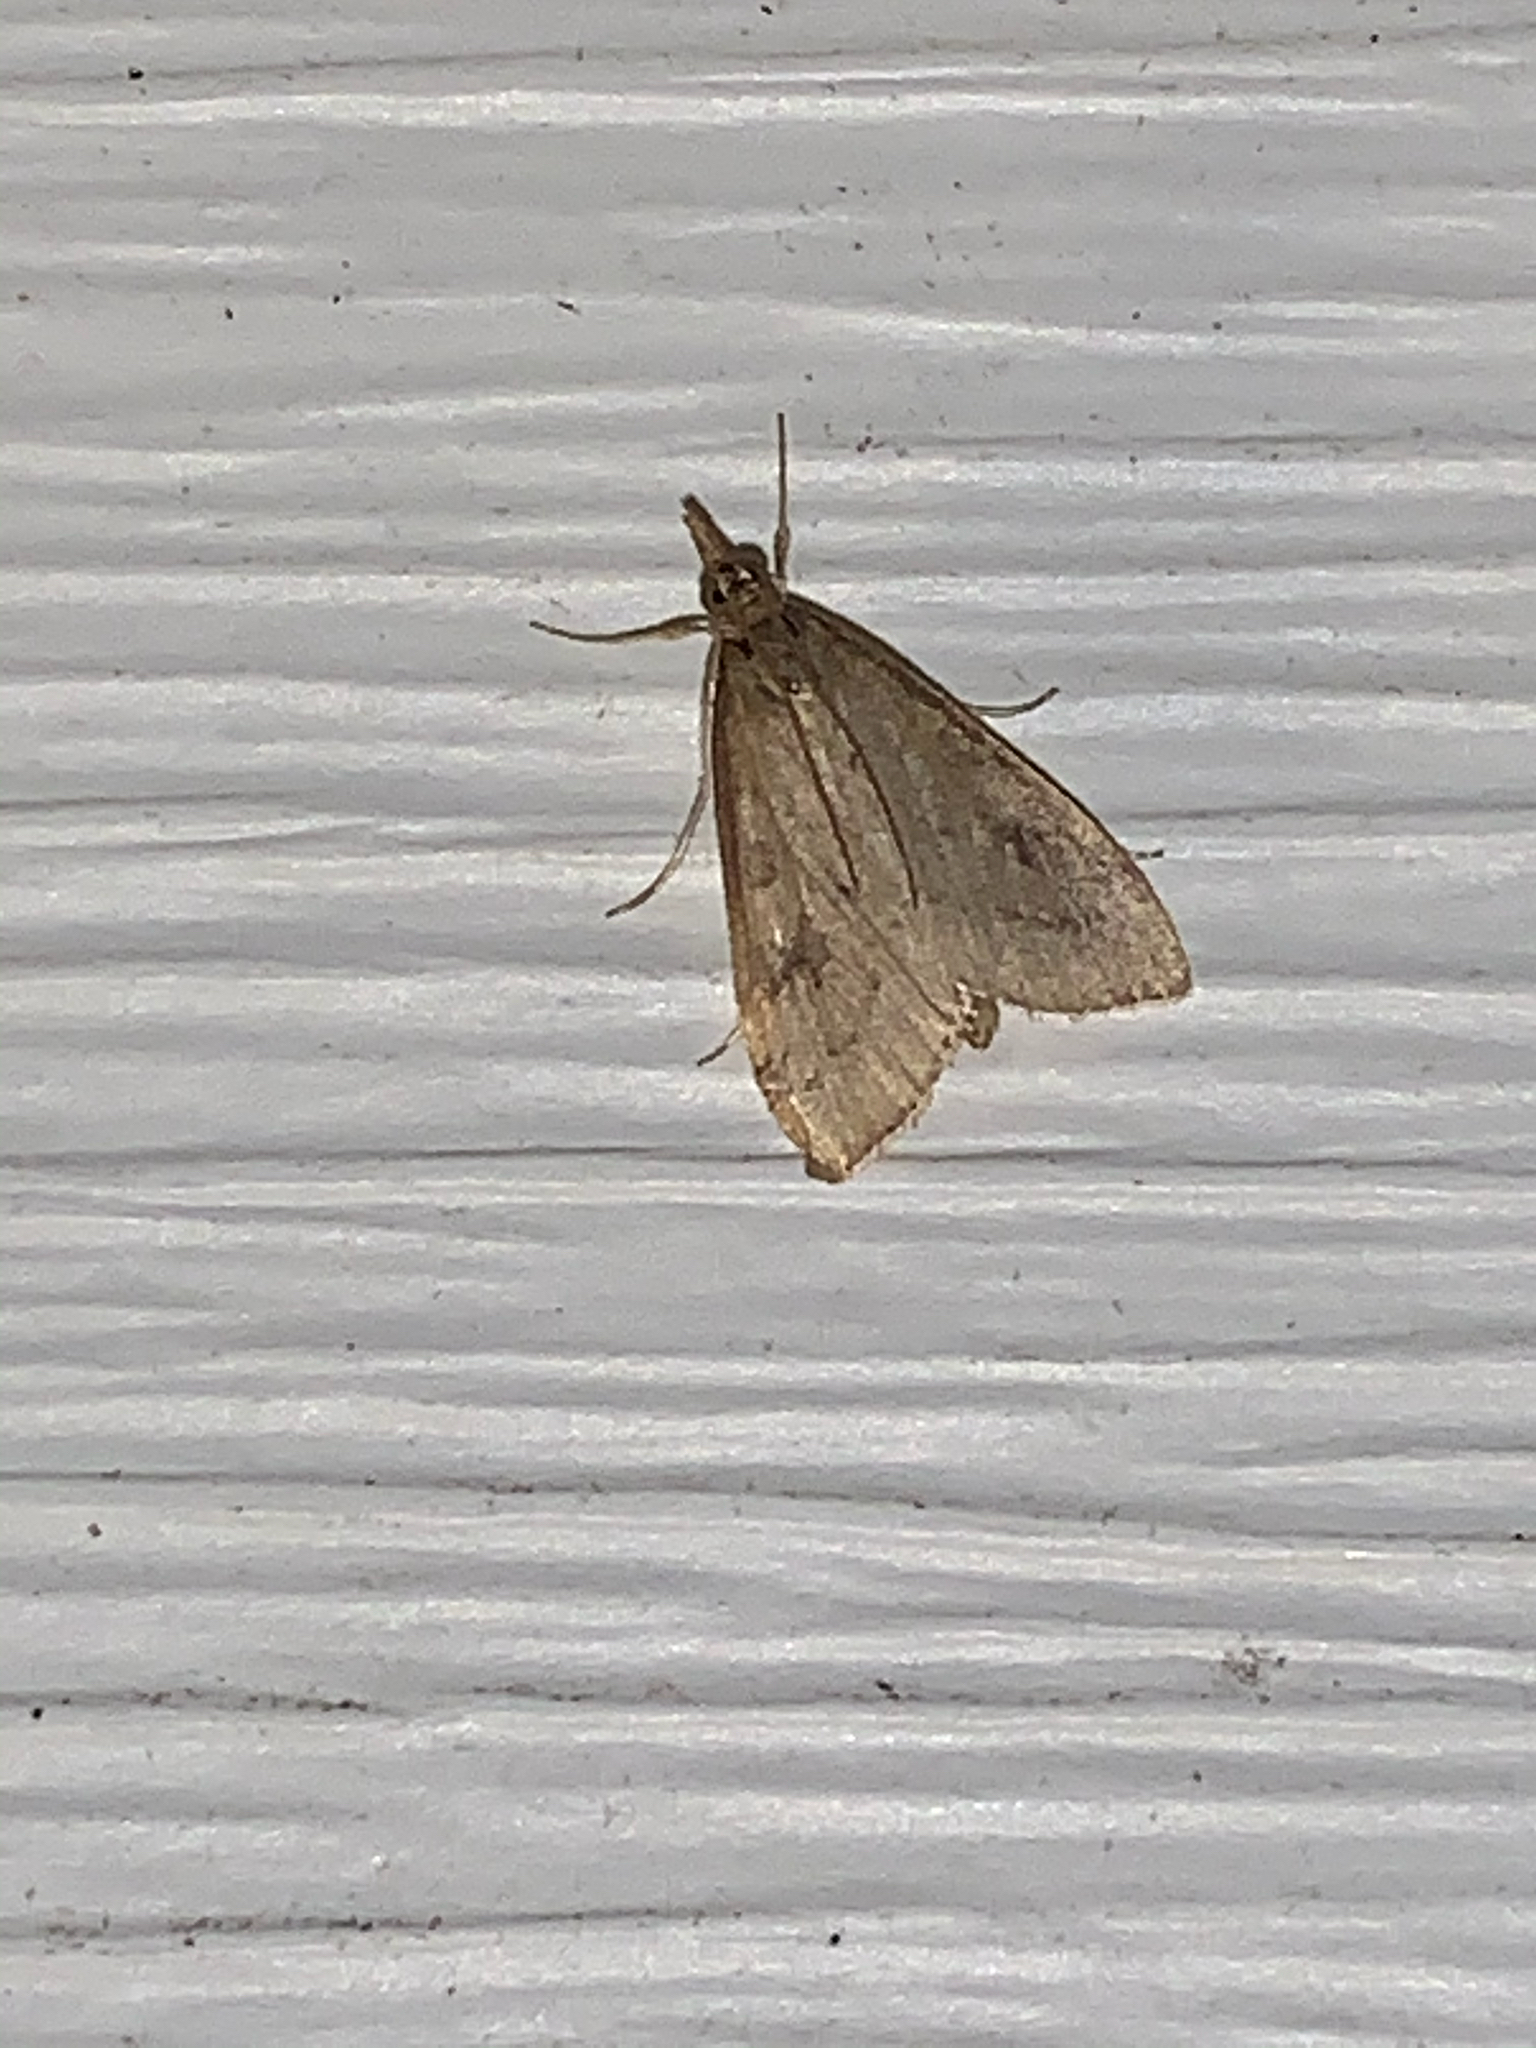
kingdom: Animalia
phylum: Arthropoda
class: Insecta
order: Lepidoptera
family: Crambidae
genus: Udea
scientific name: Udea rubigalis
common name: Celery leaftier moth
